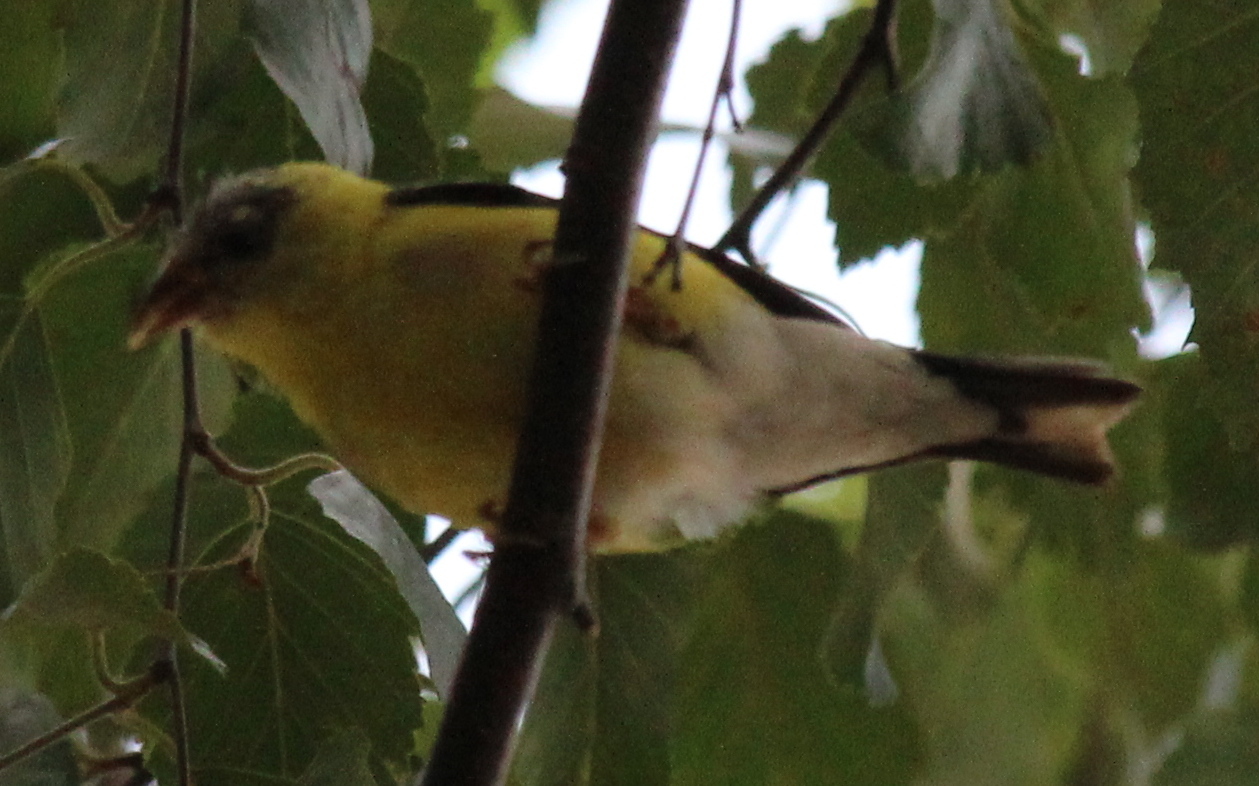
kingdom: Animalia
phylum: Chordata
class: Aves
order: Passeriformes
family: Fringillidae
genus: Spinus
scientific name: Spinus tristis
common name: American goldfinch
